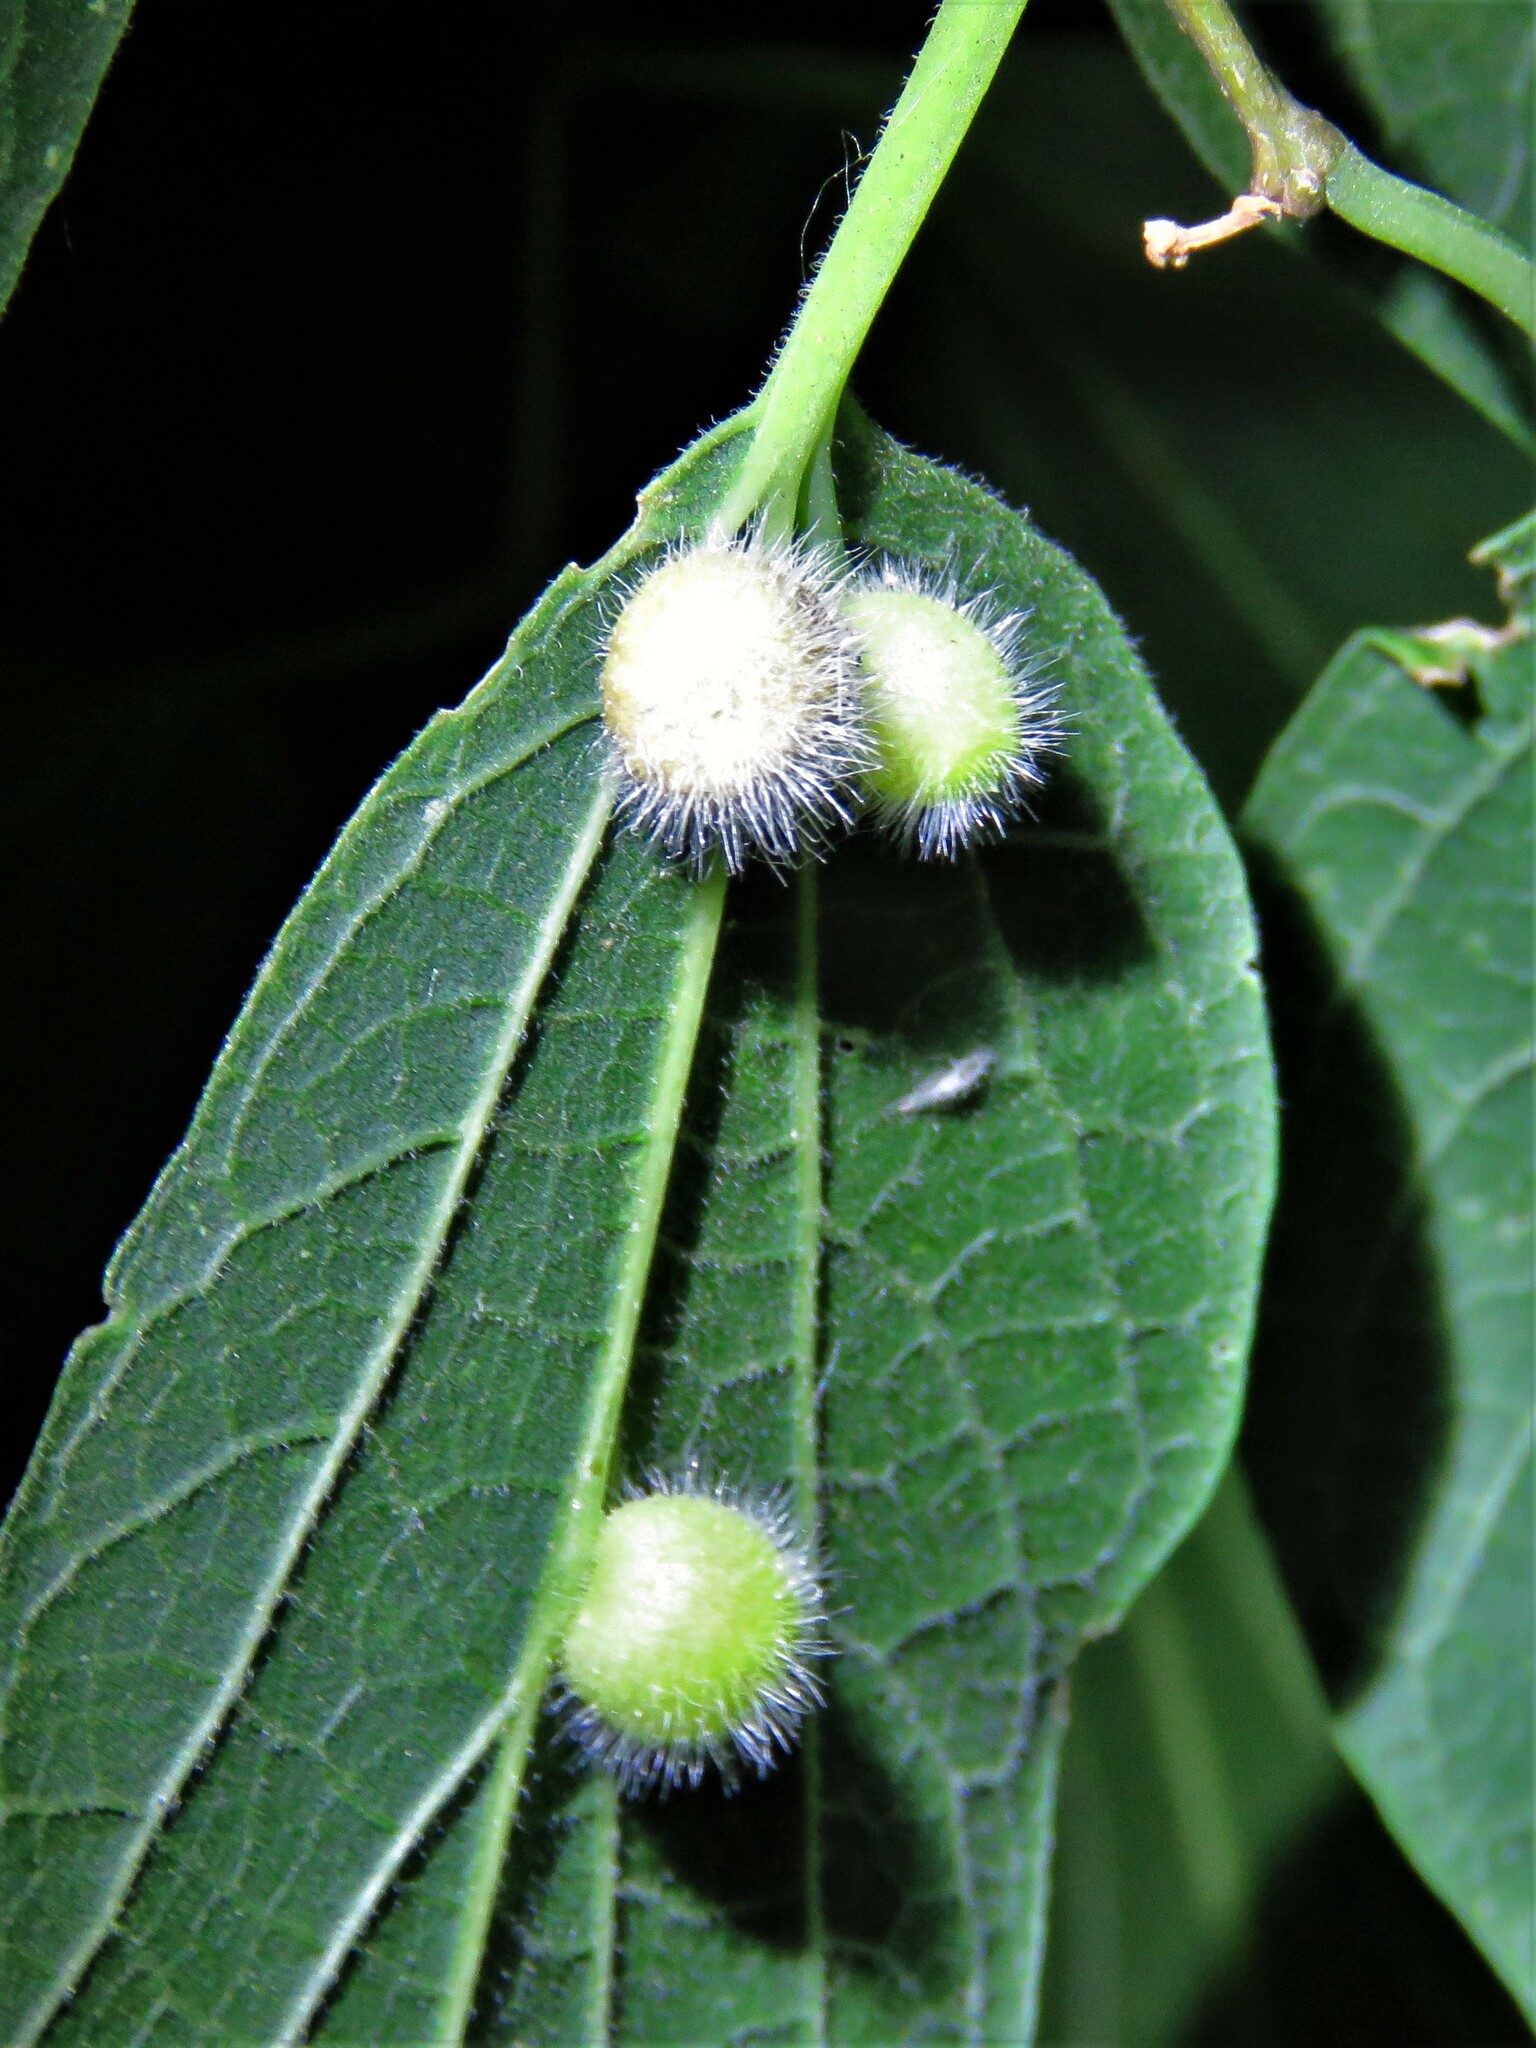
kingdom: Animalia
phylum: Arthropoda
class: Insecta
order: Hemiptera
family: Aphalaridae
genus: Pachypsylla
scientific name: Pachypsylla celtidispubescens
